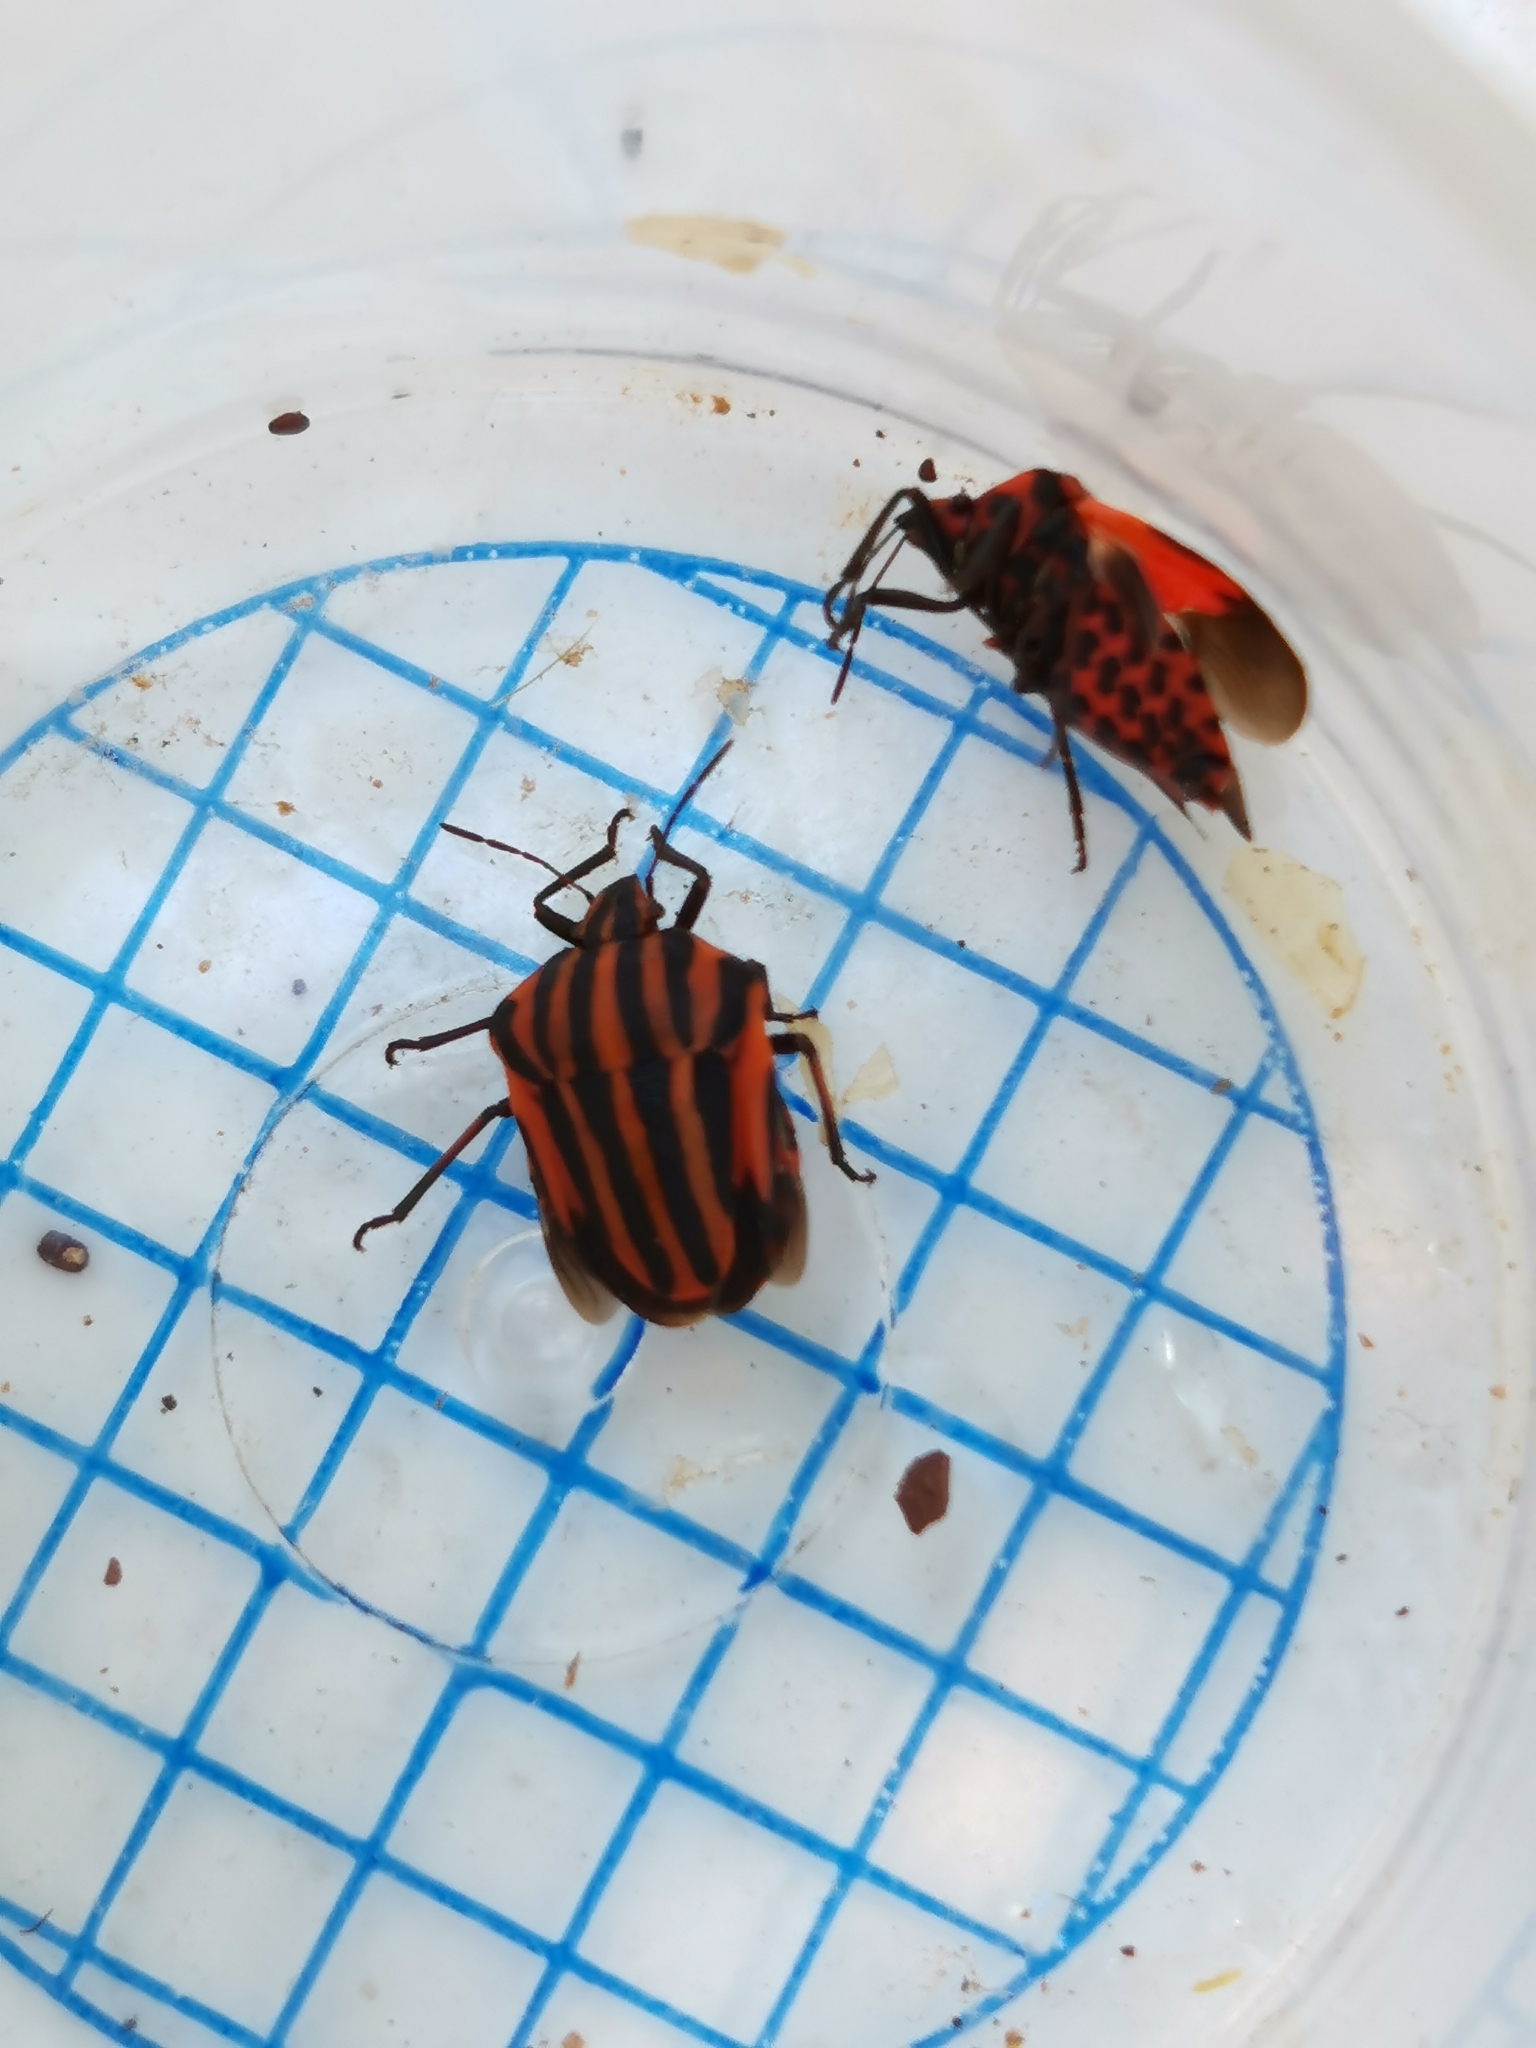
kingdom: Animalia
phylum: Arthropoda
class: Insecta
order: Hemiptera
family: Pentatomidae
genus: Graphosoma
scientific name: Graphosoma italicum
